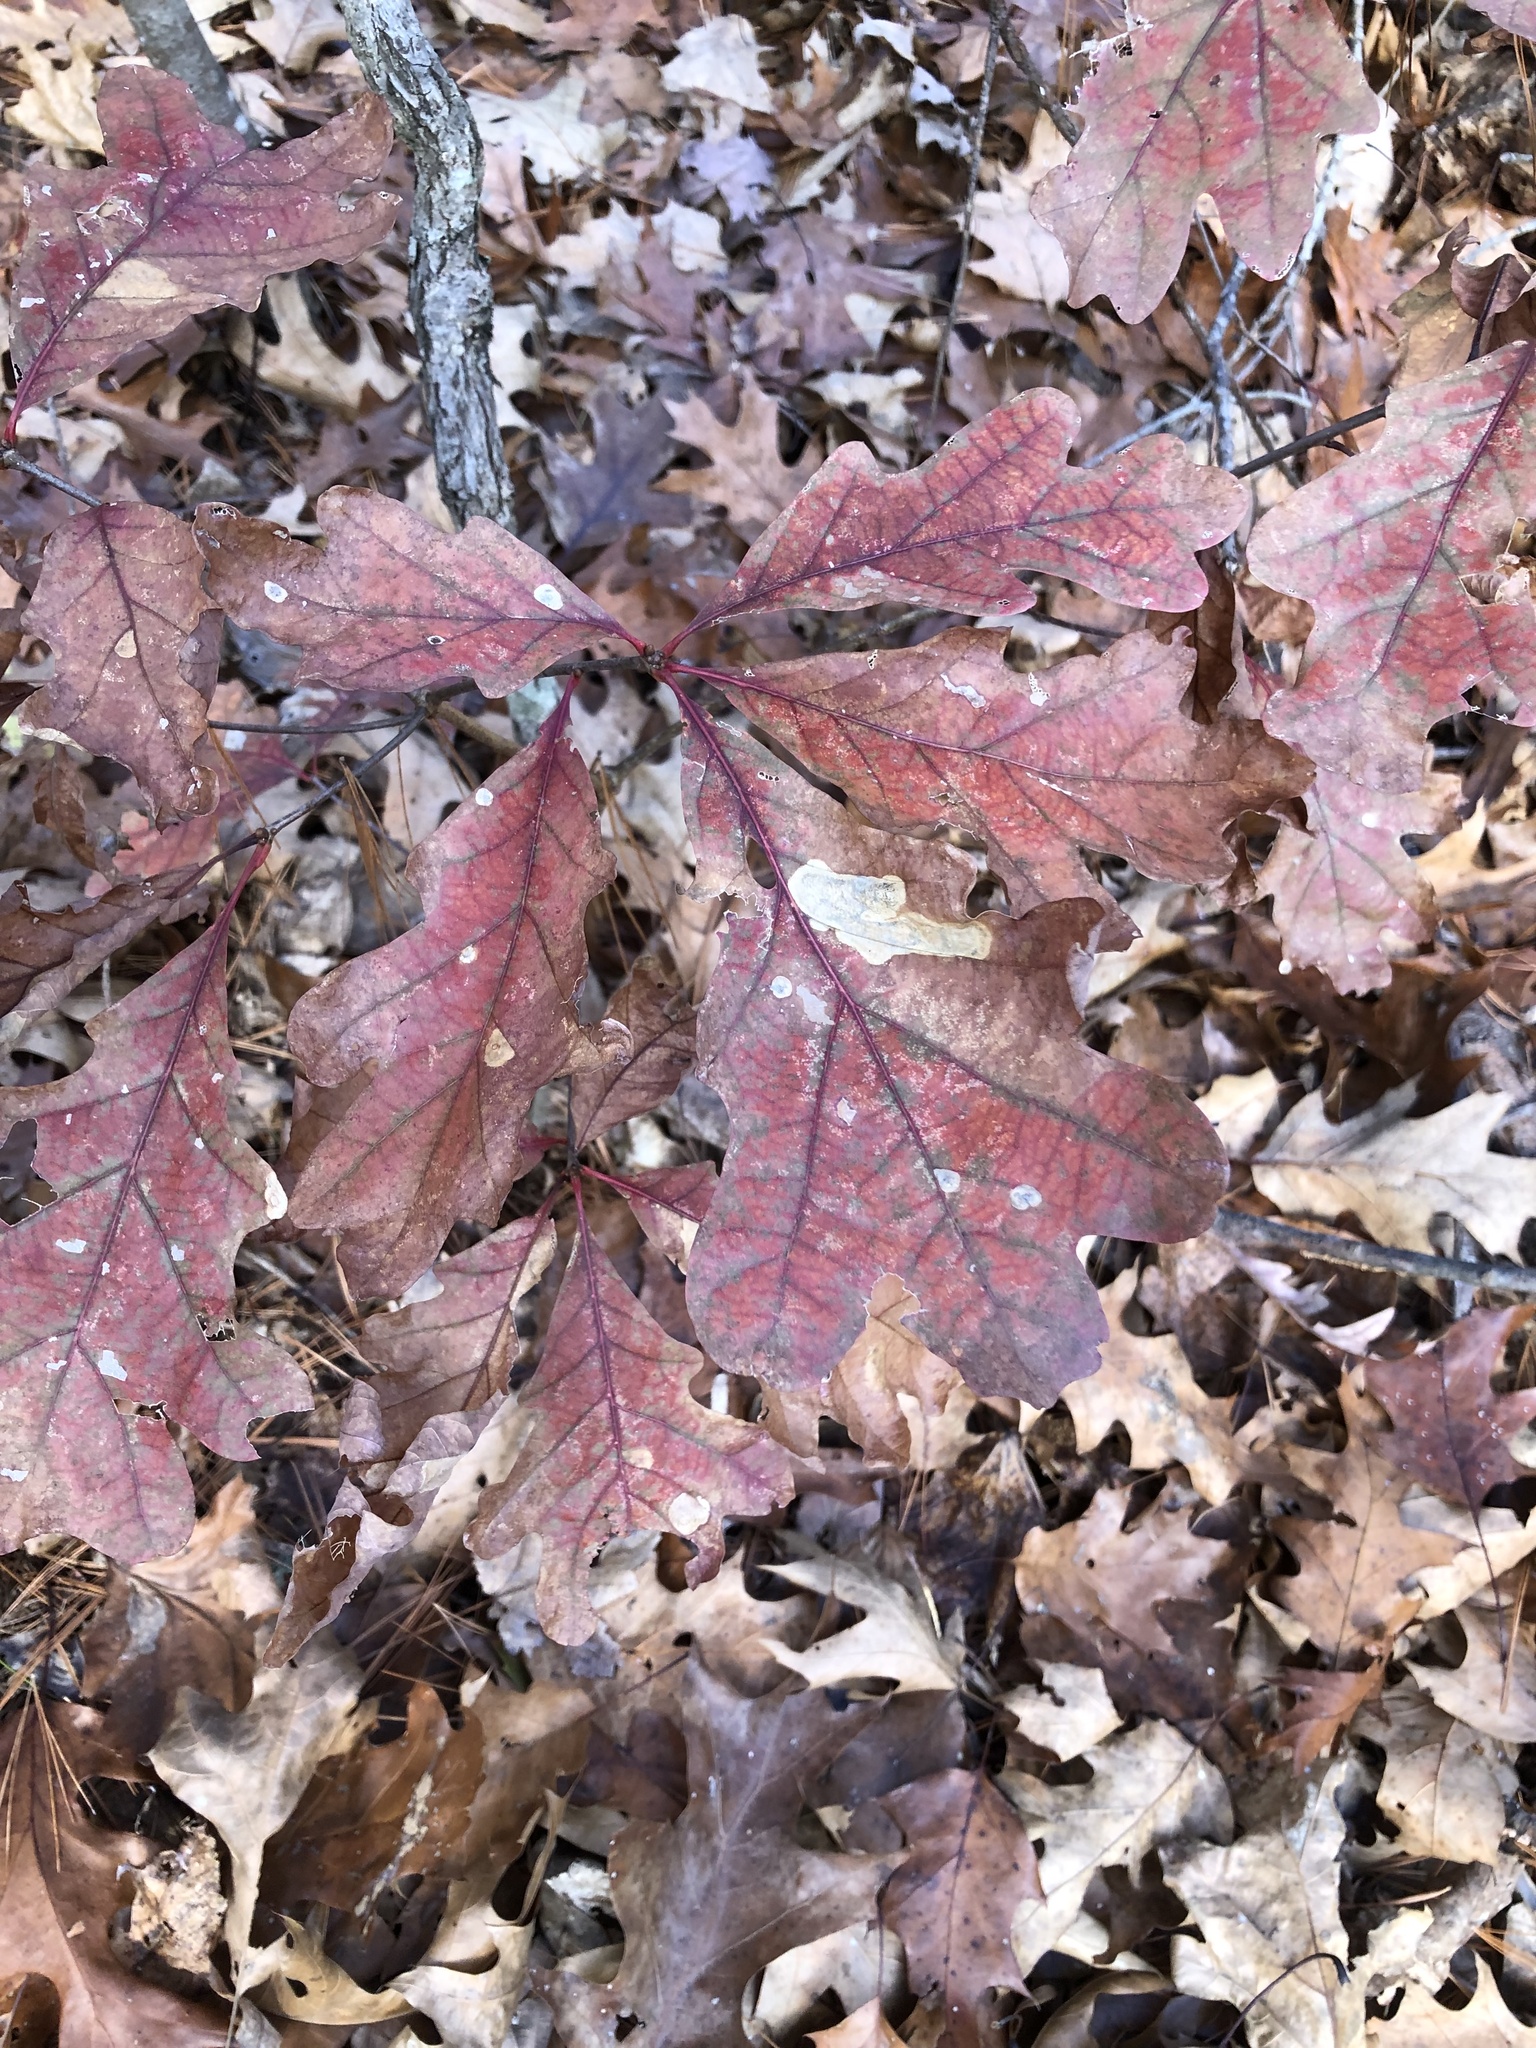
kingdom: Plantae
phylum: Tracheophyta
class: Magnoliopsida
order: Fagales
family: Fagaceae
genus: Quercus
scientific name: Quercus alba
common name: White oak
